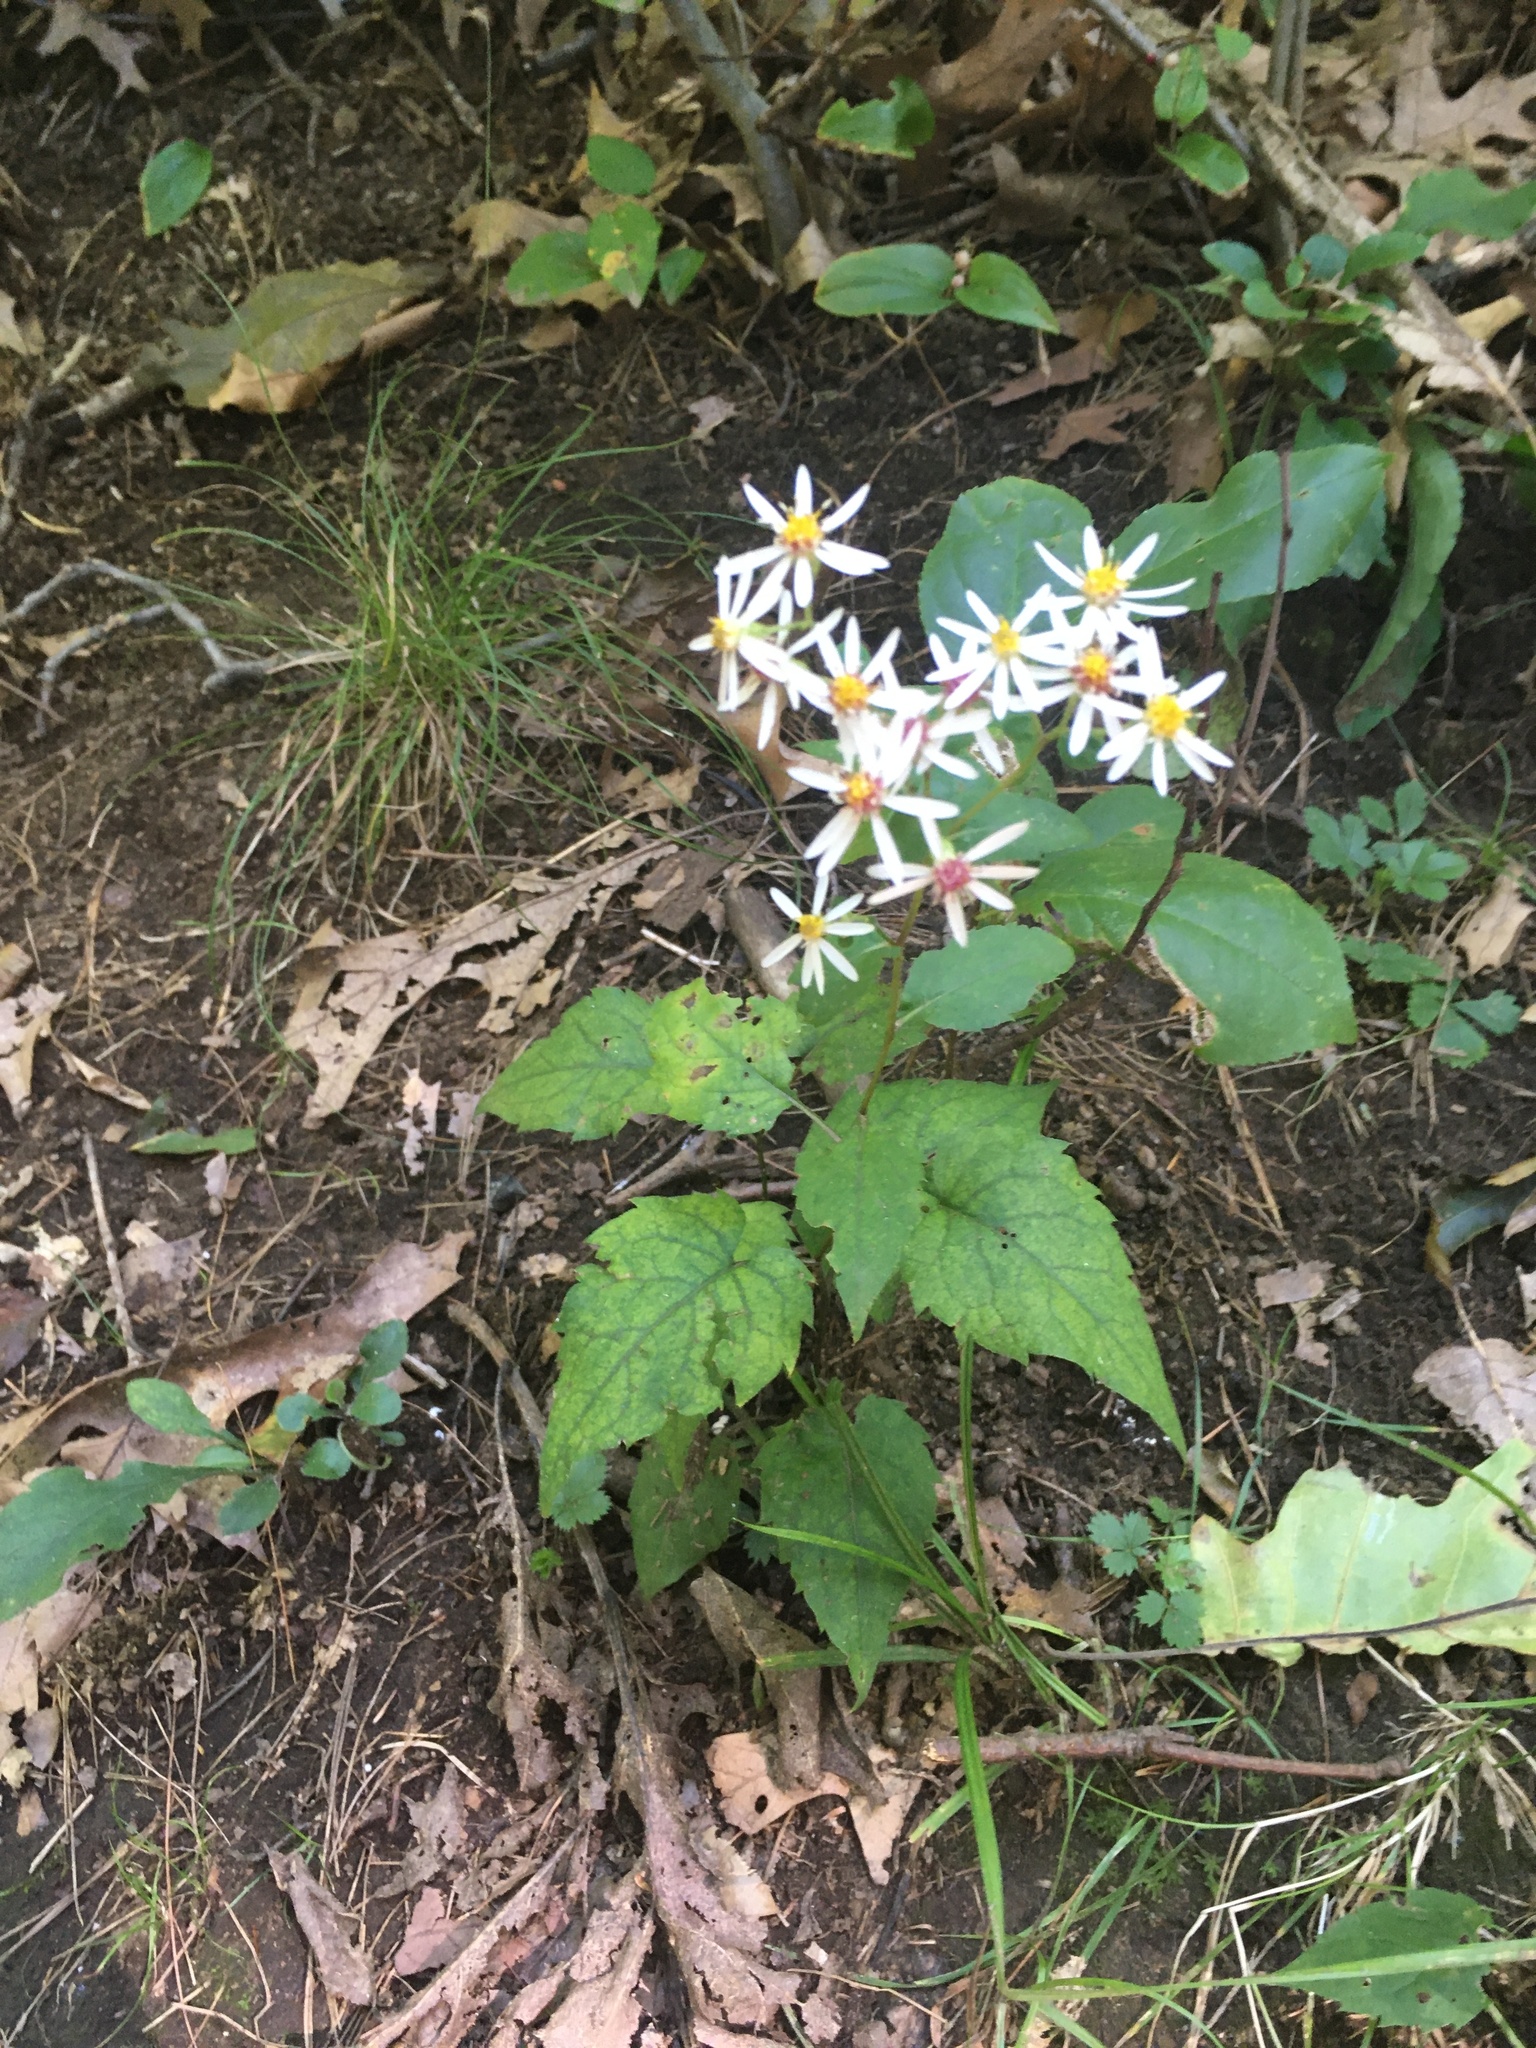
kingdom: Plantae
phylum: Tracheophyta
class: Magnoliopsida
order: Asterales
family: Asteraceae
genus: Eurybia
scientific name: Eurybia divaricata
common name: White wood aster
